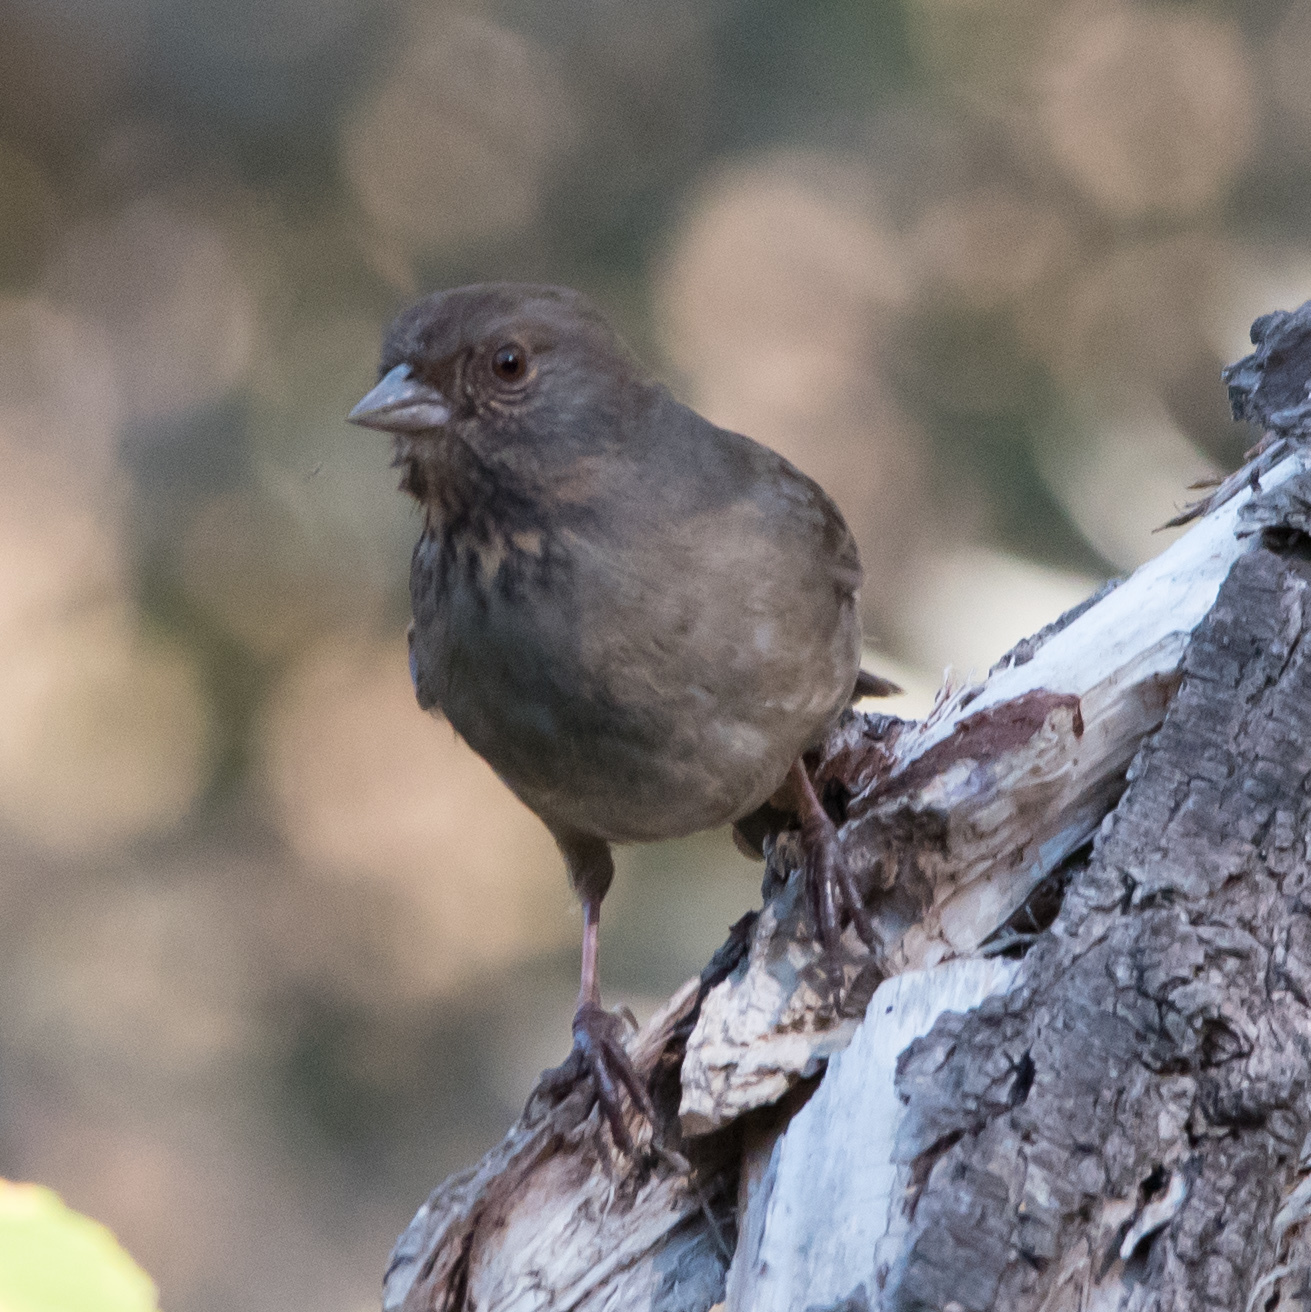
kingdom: Animalia
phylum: Chordata
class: Aves
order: Passeriformes
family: Passerellidae
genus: Melozone
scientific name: Melozone crissalis
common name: California towhee
